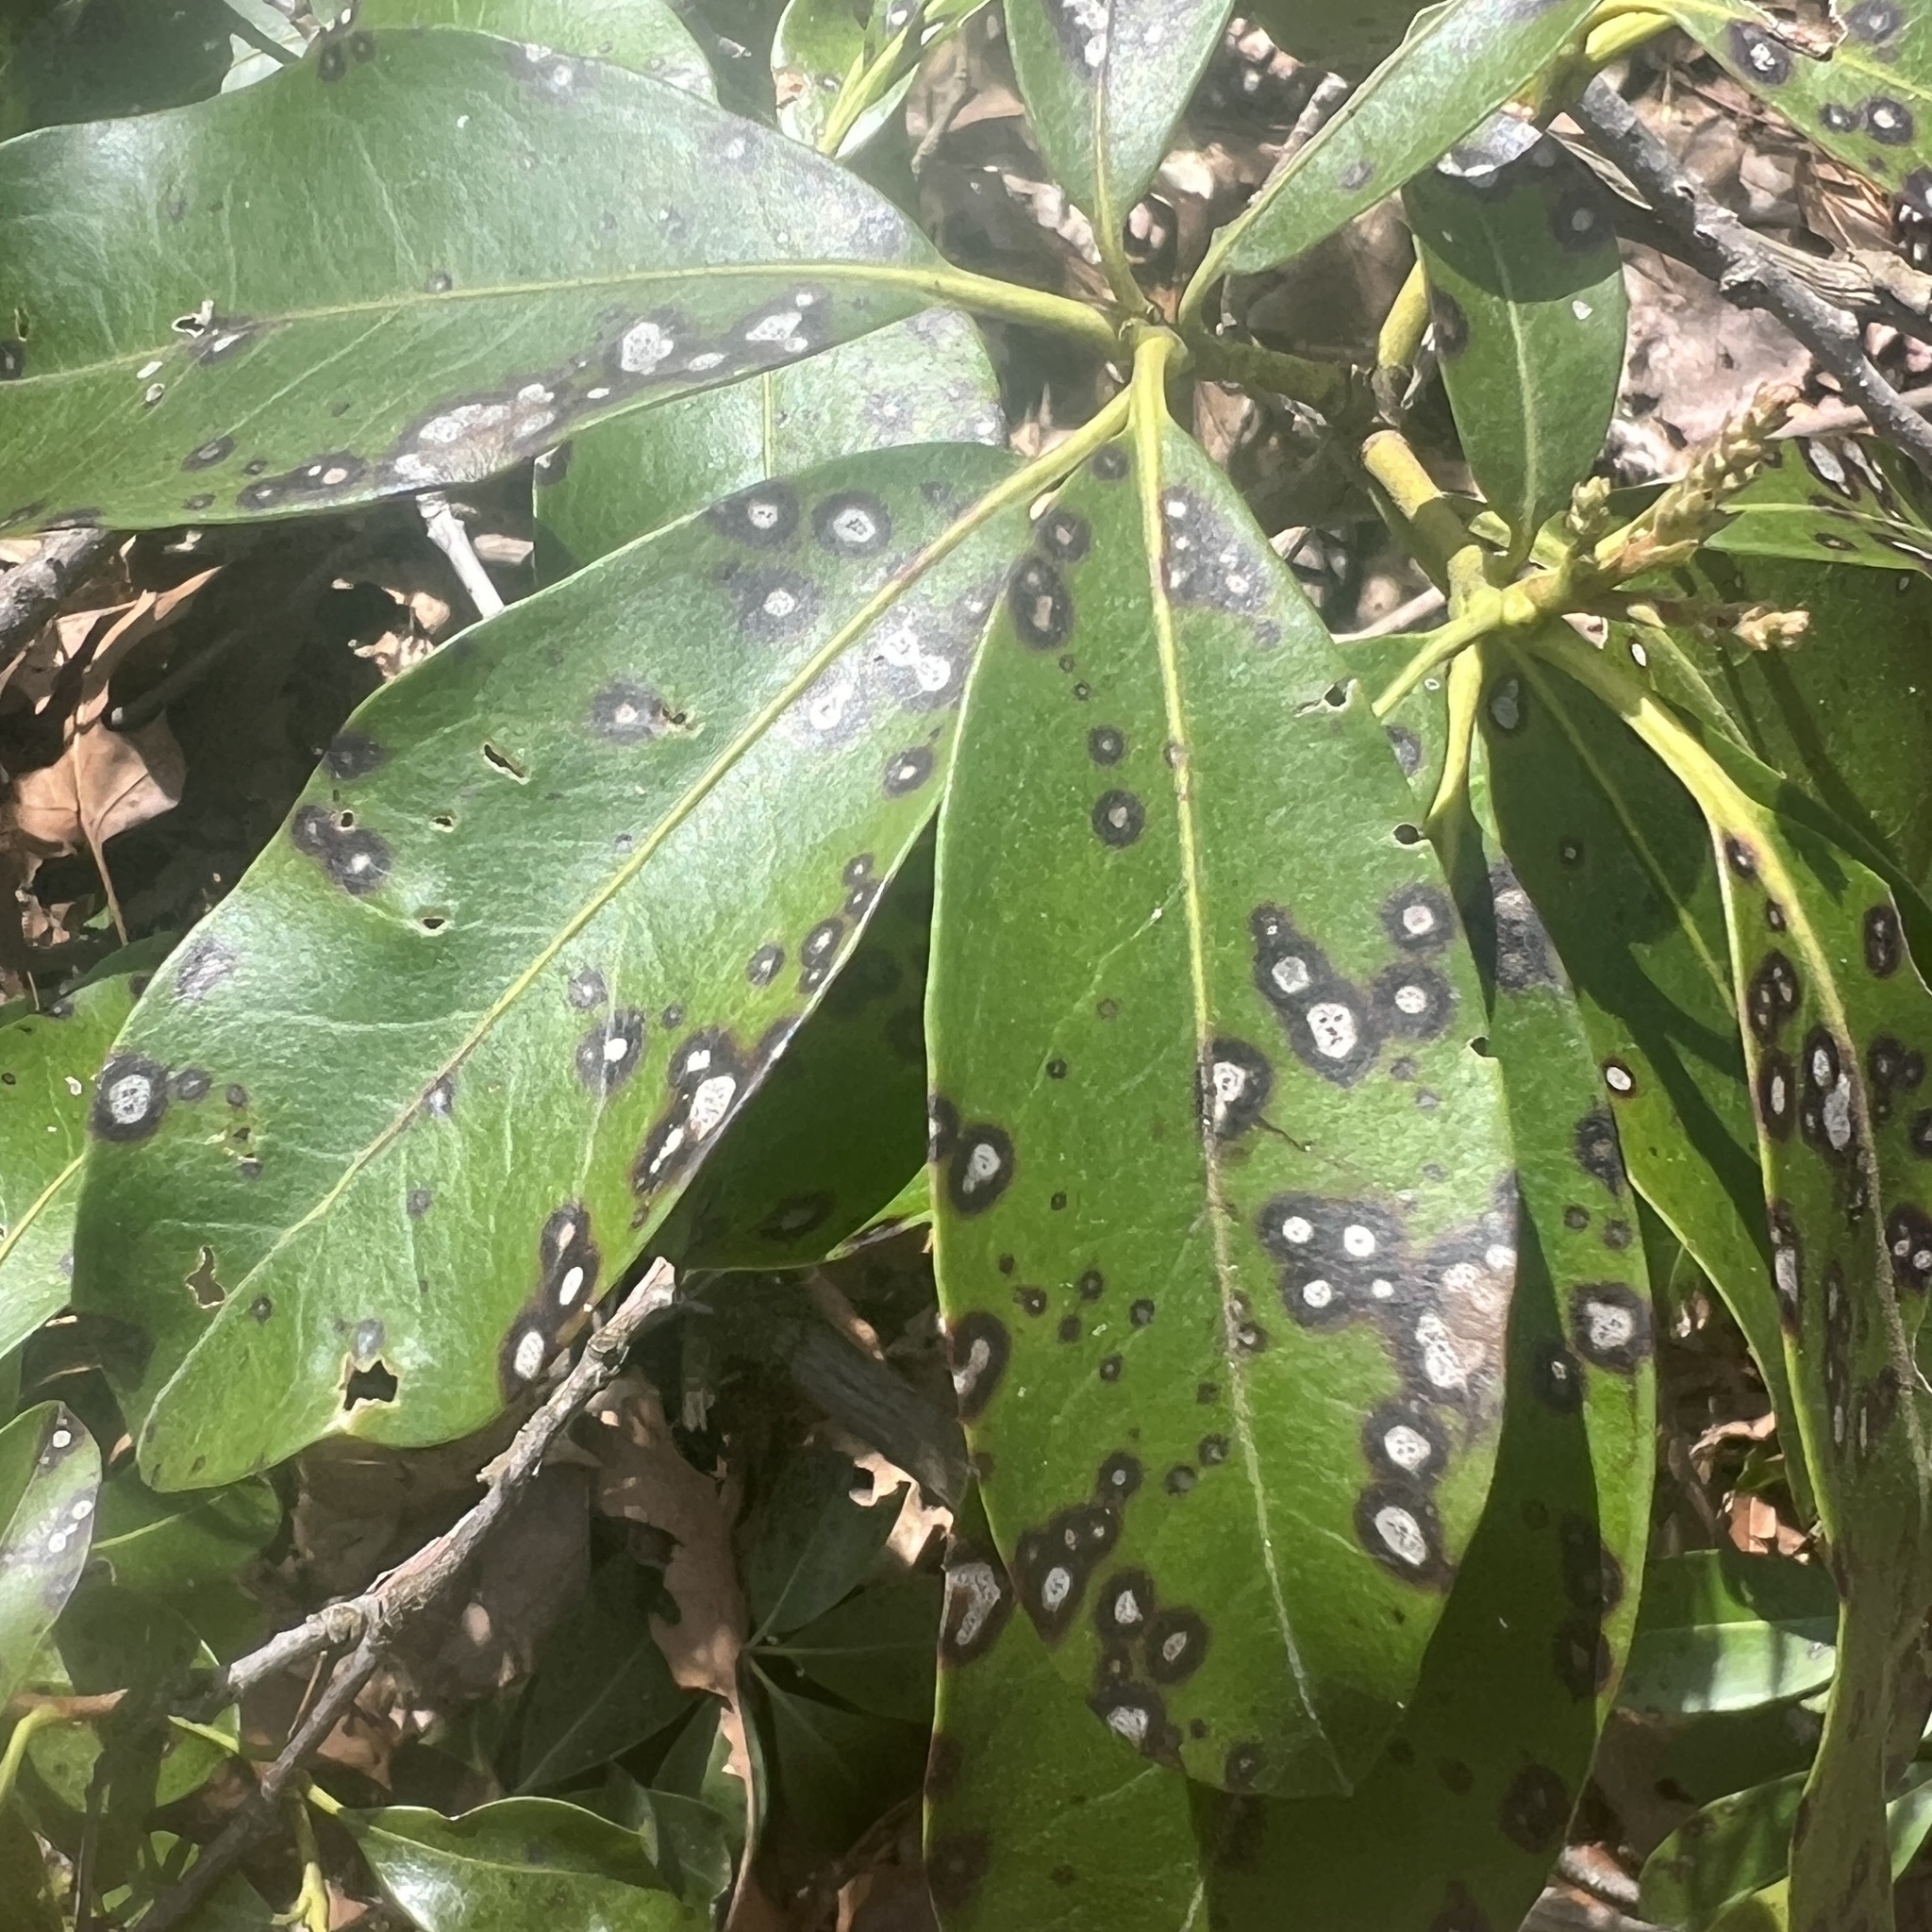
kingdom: Fungi
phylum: Ascomycota
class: Dothideomycetes
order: Mycosphaerellales
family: Mycosphaerellaceae
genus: Mycosphaerella
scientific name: Mycosphaerella colorata
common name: Mountain laurel leaf spot
